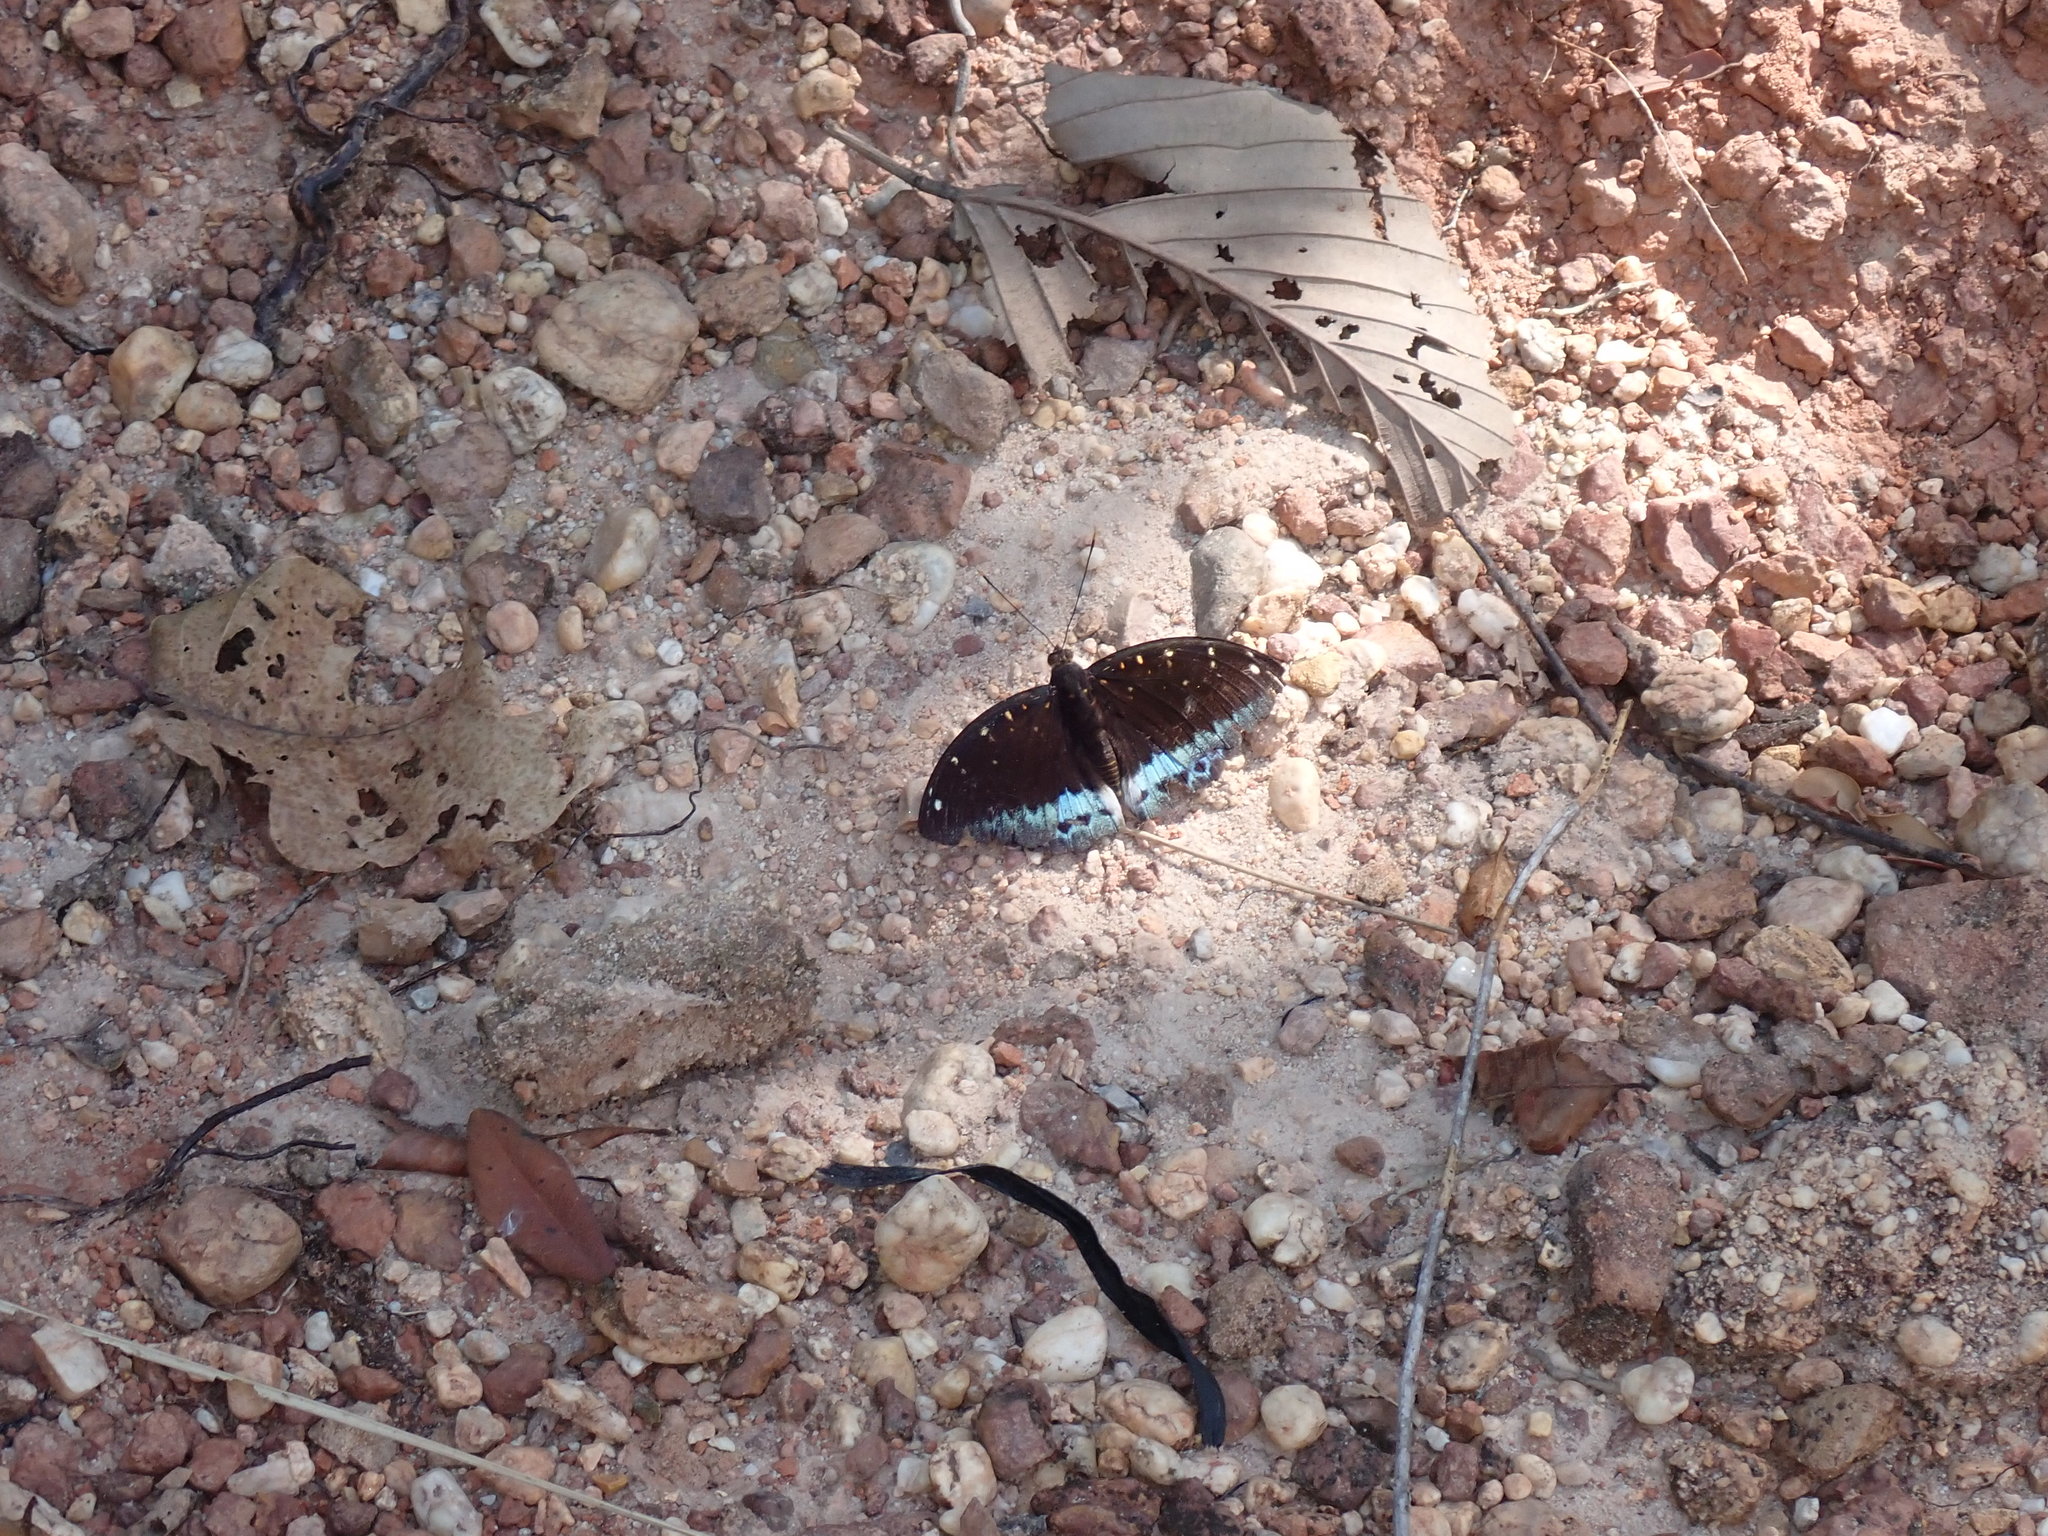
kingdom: Animalia
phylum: Arthropoda
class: Insecta
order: Lepidoptera
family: Nymphalidae
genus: Lexias
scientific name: Lexias pardalis
